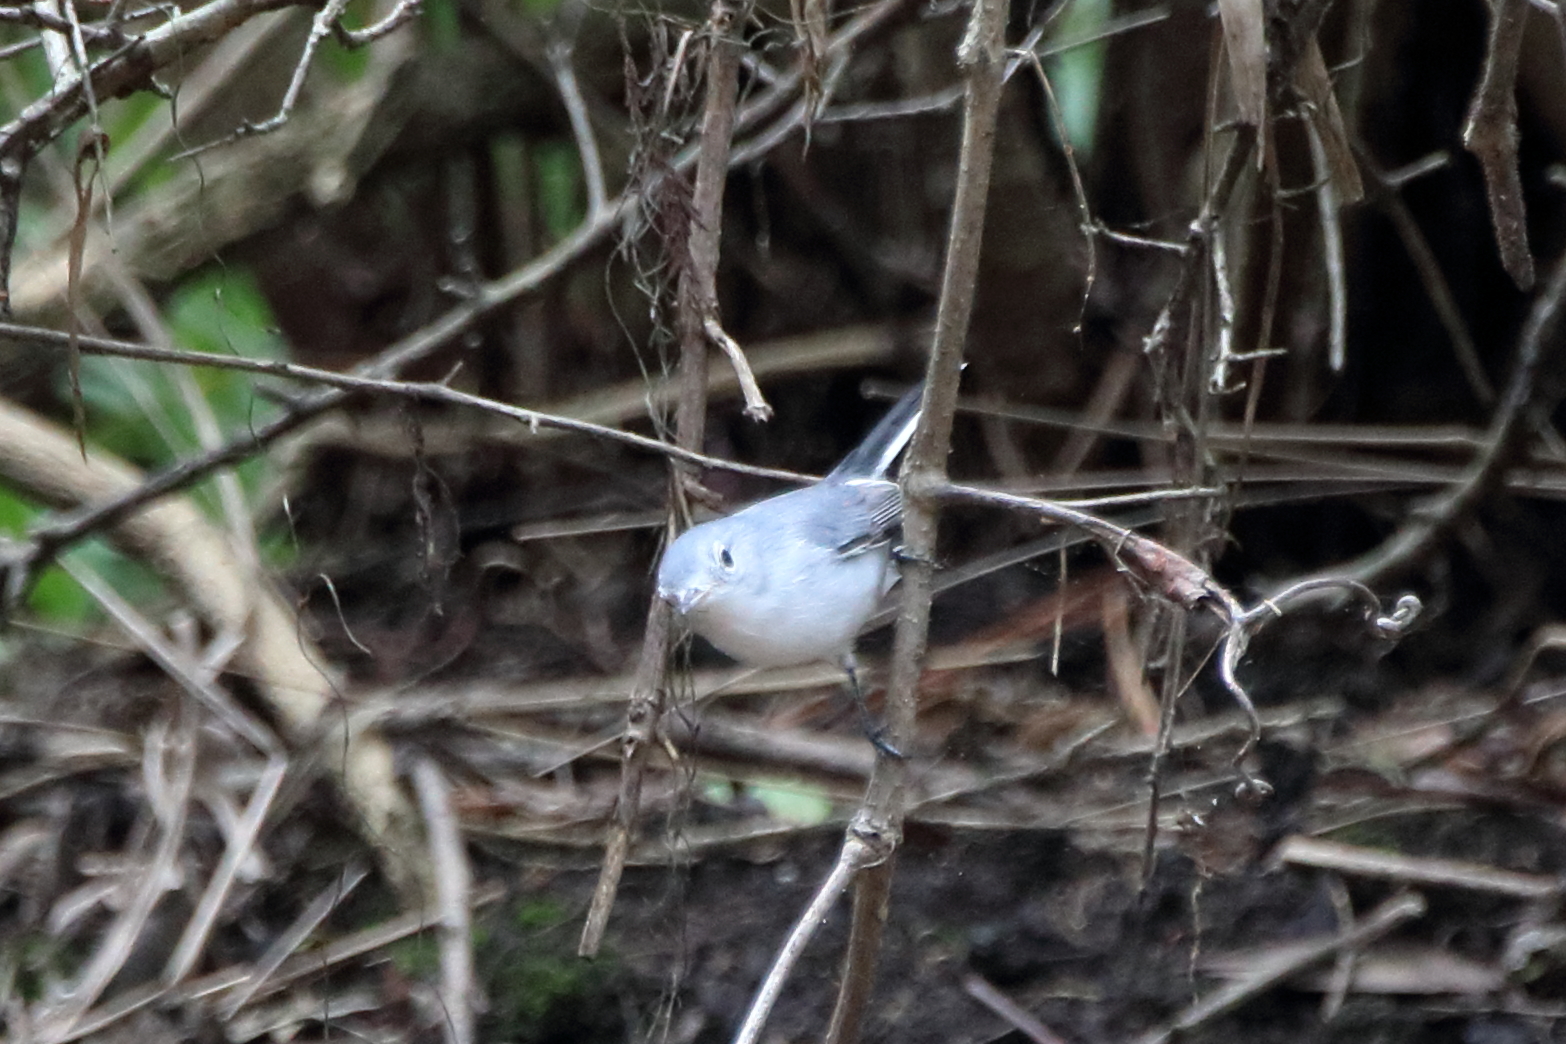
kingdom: Animalia
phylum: Chordata
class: Aves
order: Passeriformes
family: Polioptilidae
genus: Polioptila
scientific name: Polioptila caerulea
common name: Blue-gray gnatcatcher
